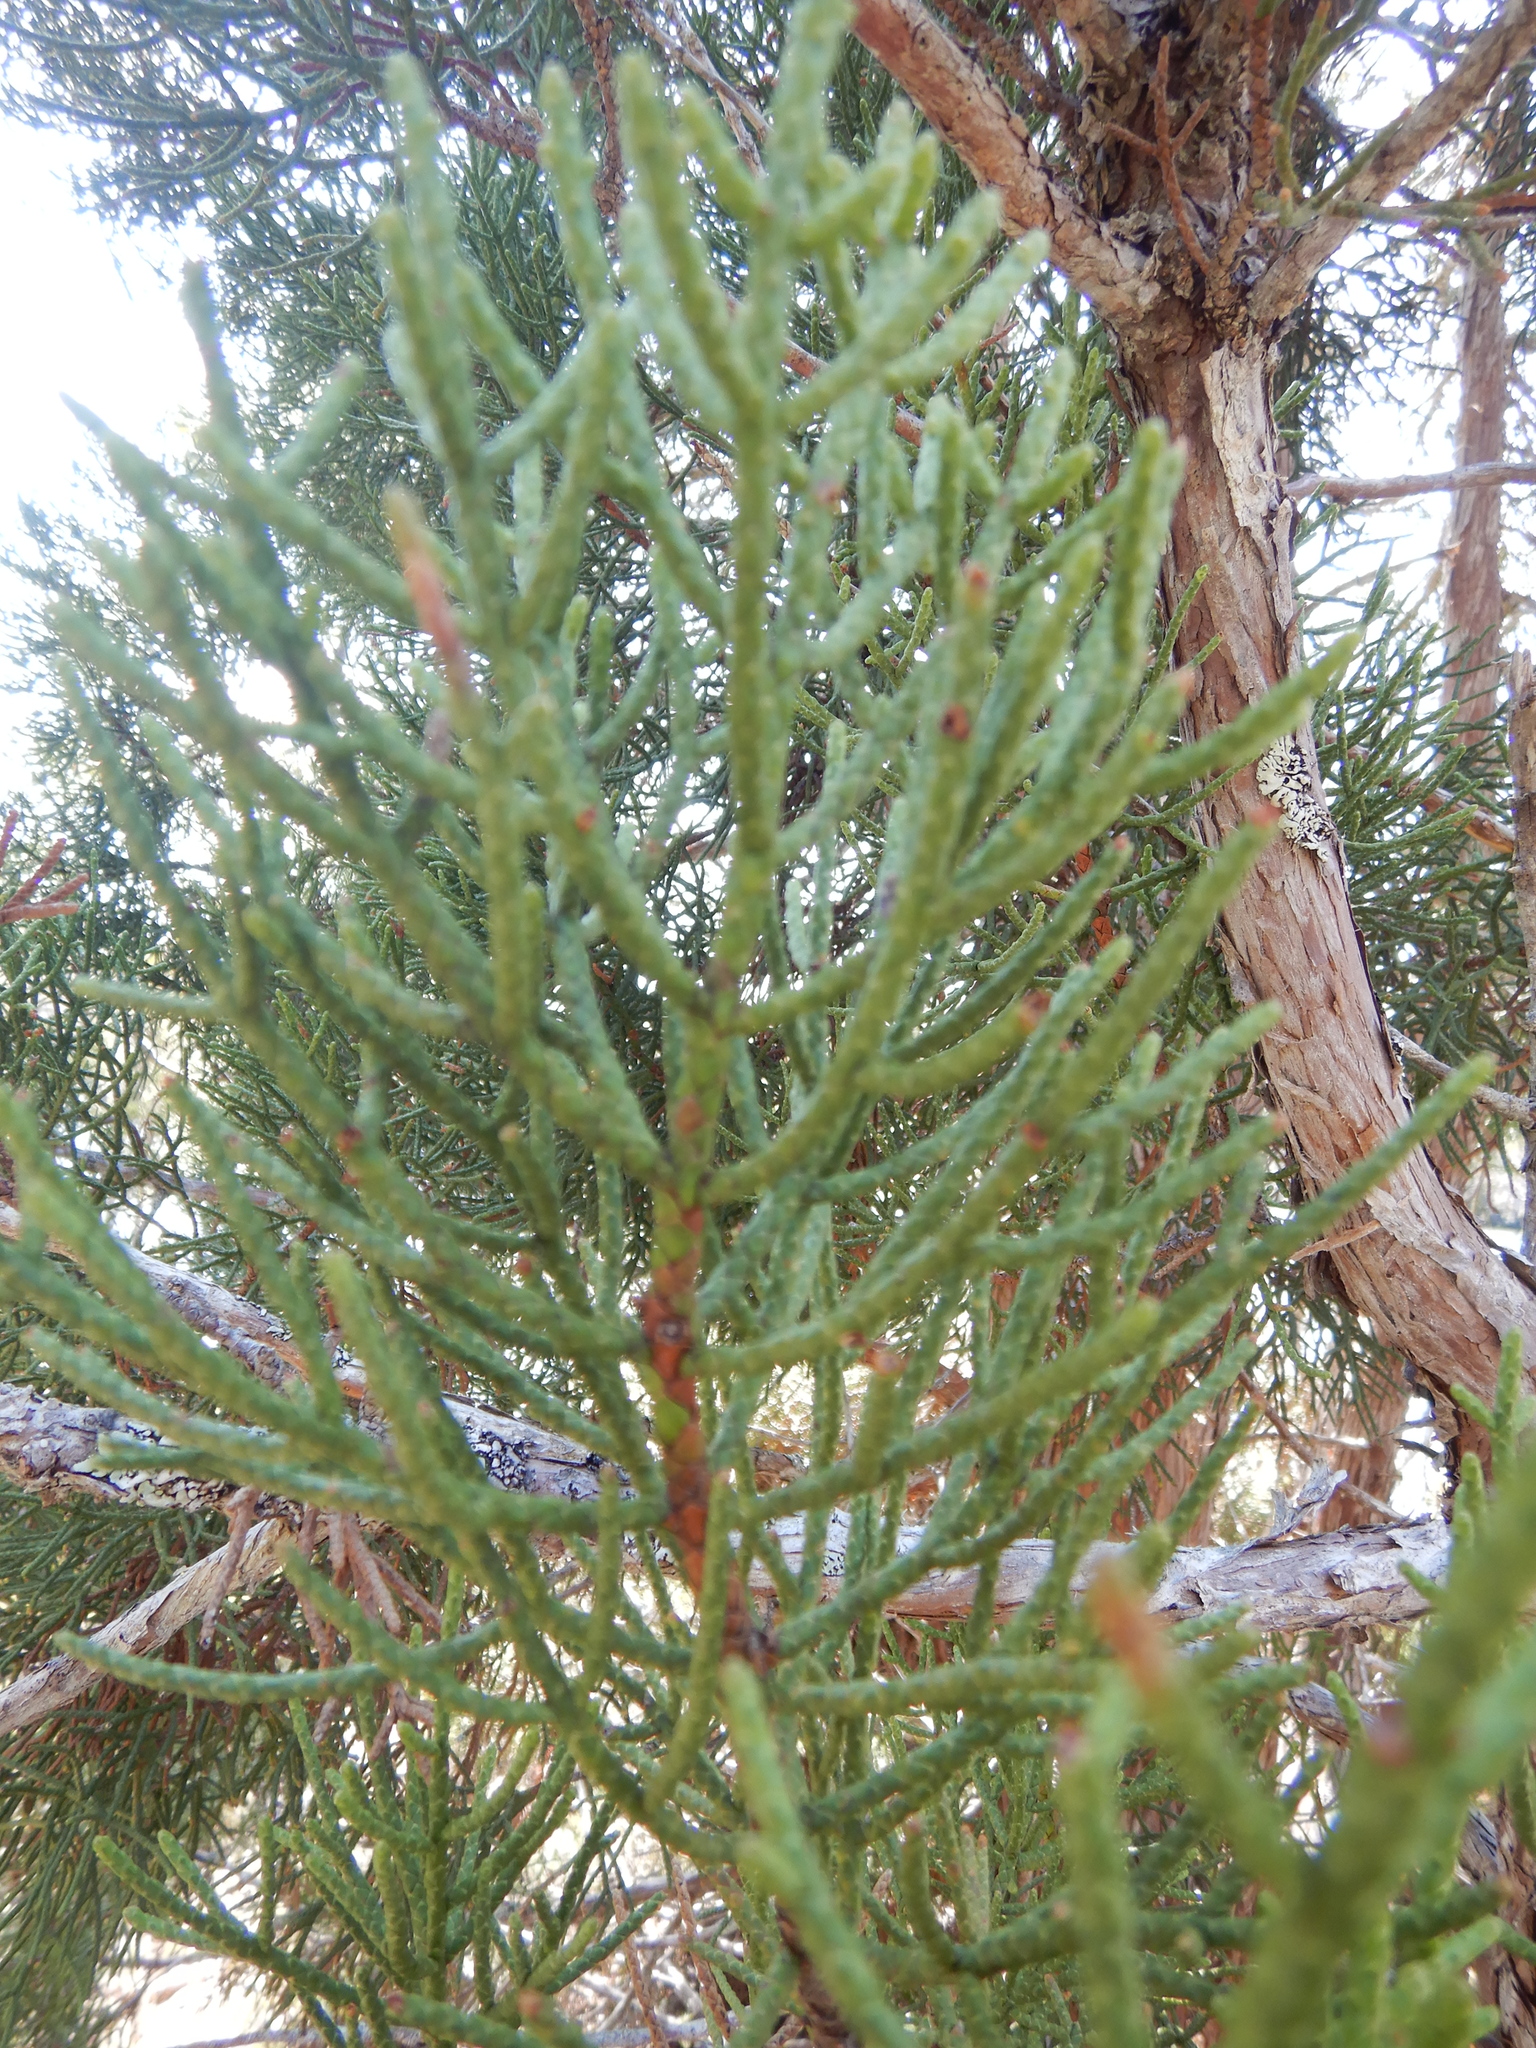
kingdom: Plantae
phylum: Tracheophyta
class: Pinopsida
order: Pinales
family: Cupressaceae
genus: Athrotaxis
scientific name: Athrotaxis cupressoides
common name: Tasmanian pencil pine
